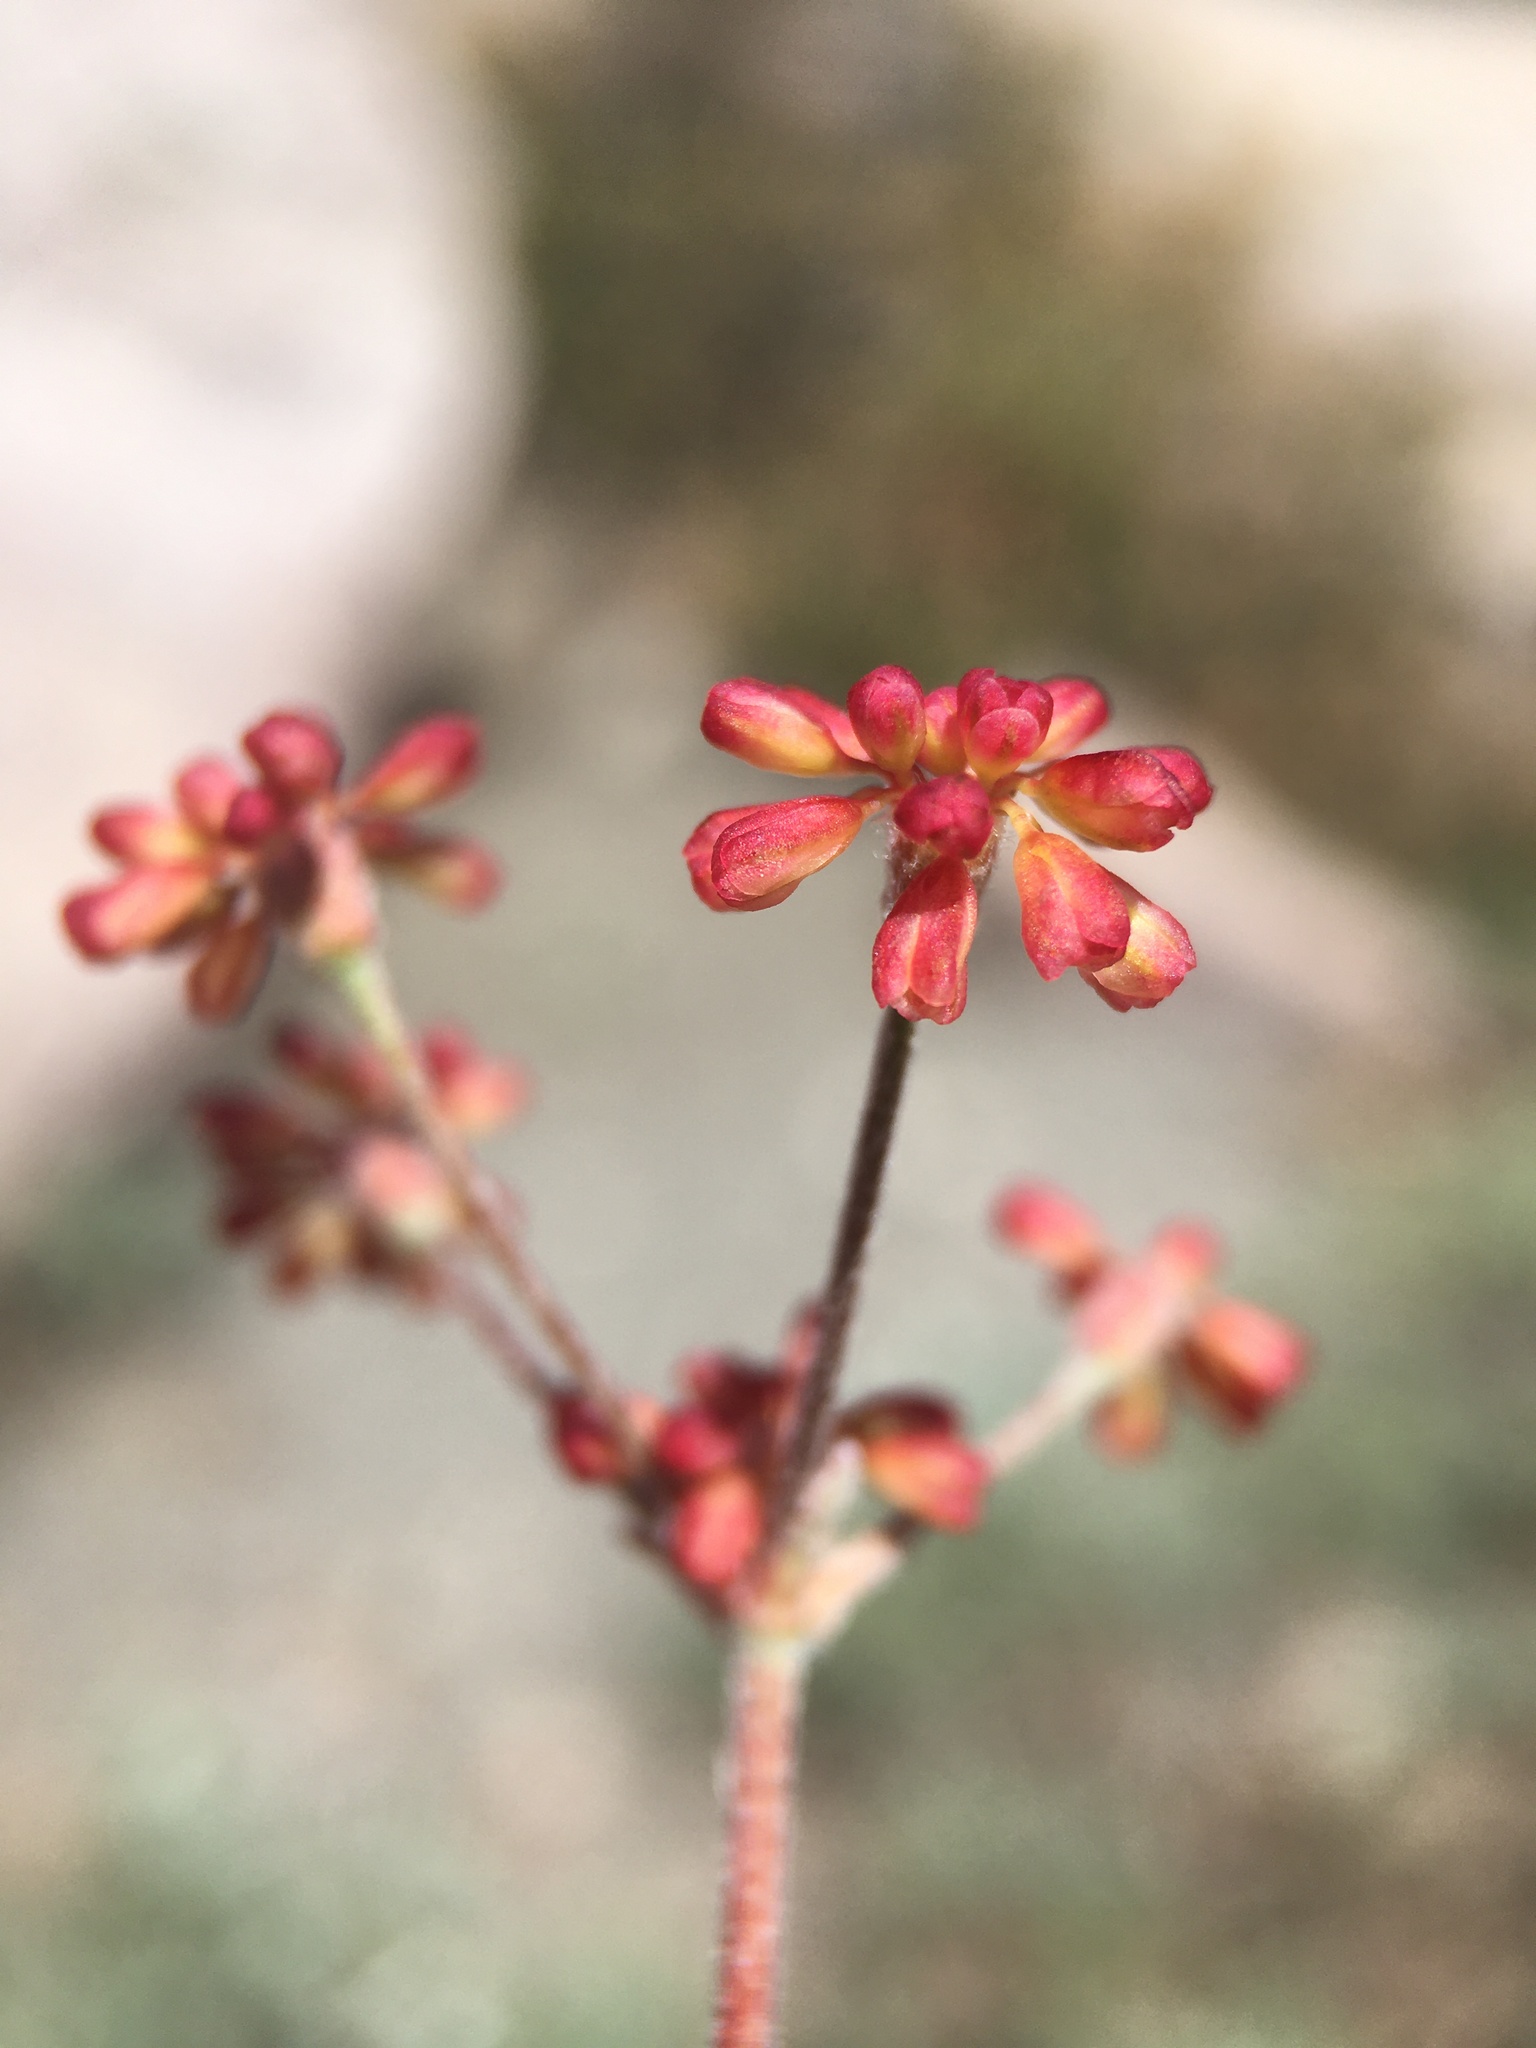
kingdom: Plantae
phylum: Tracheophyta
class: Magnoliopsida
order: Caryophyllales
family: Polygonaceae
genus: Eriogonum
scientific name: Eriogonum marifolium
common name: Marum-leaf wild buckwheat
